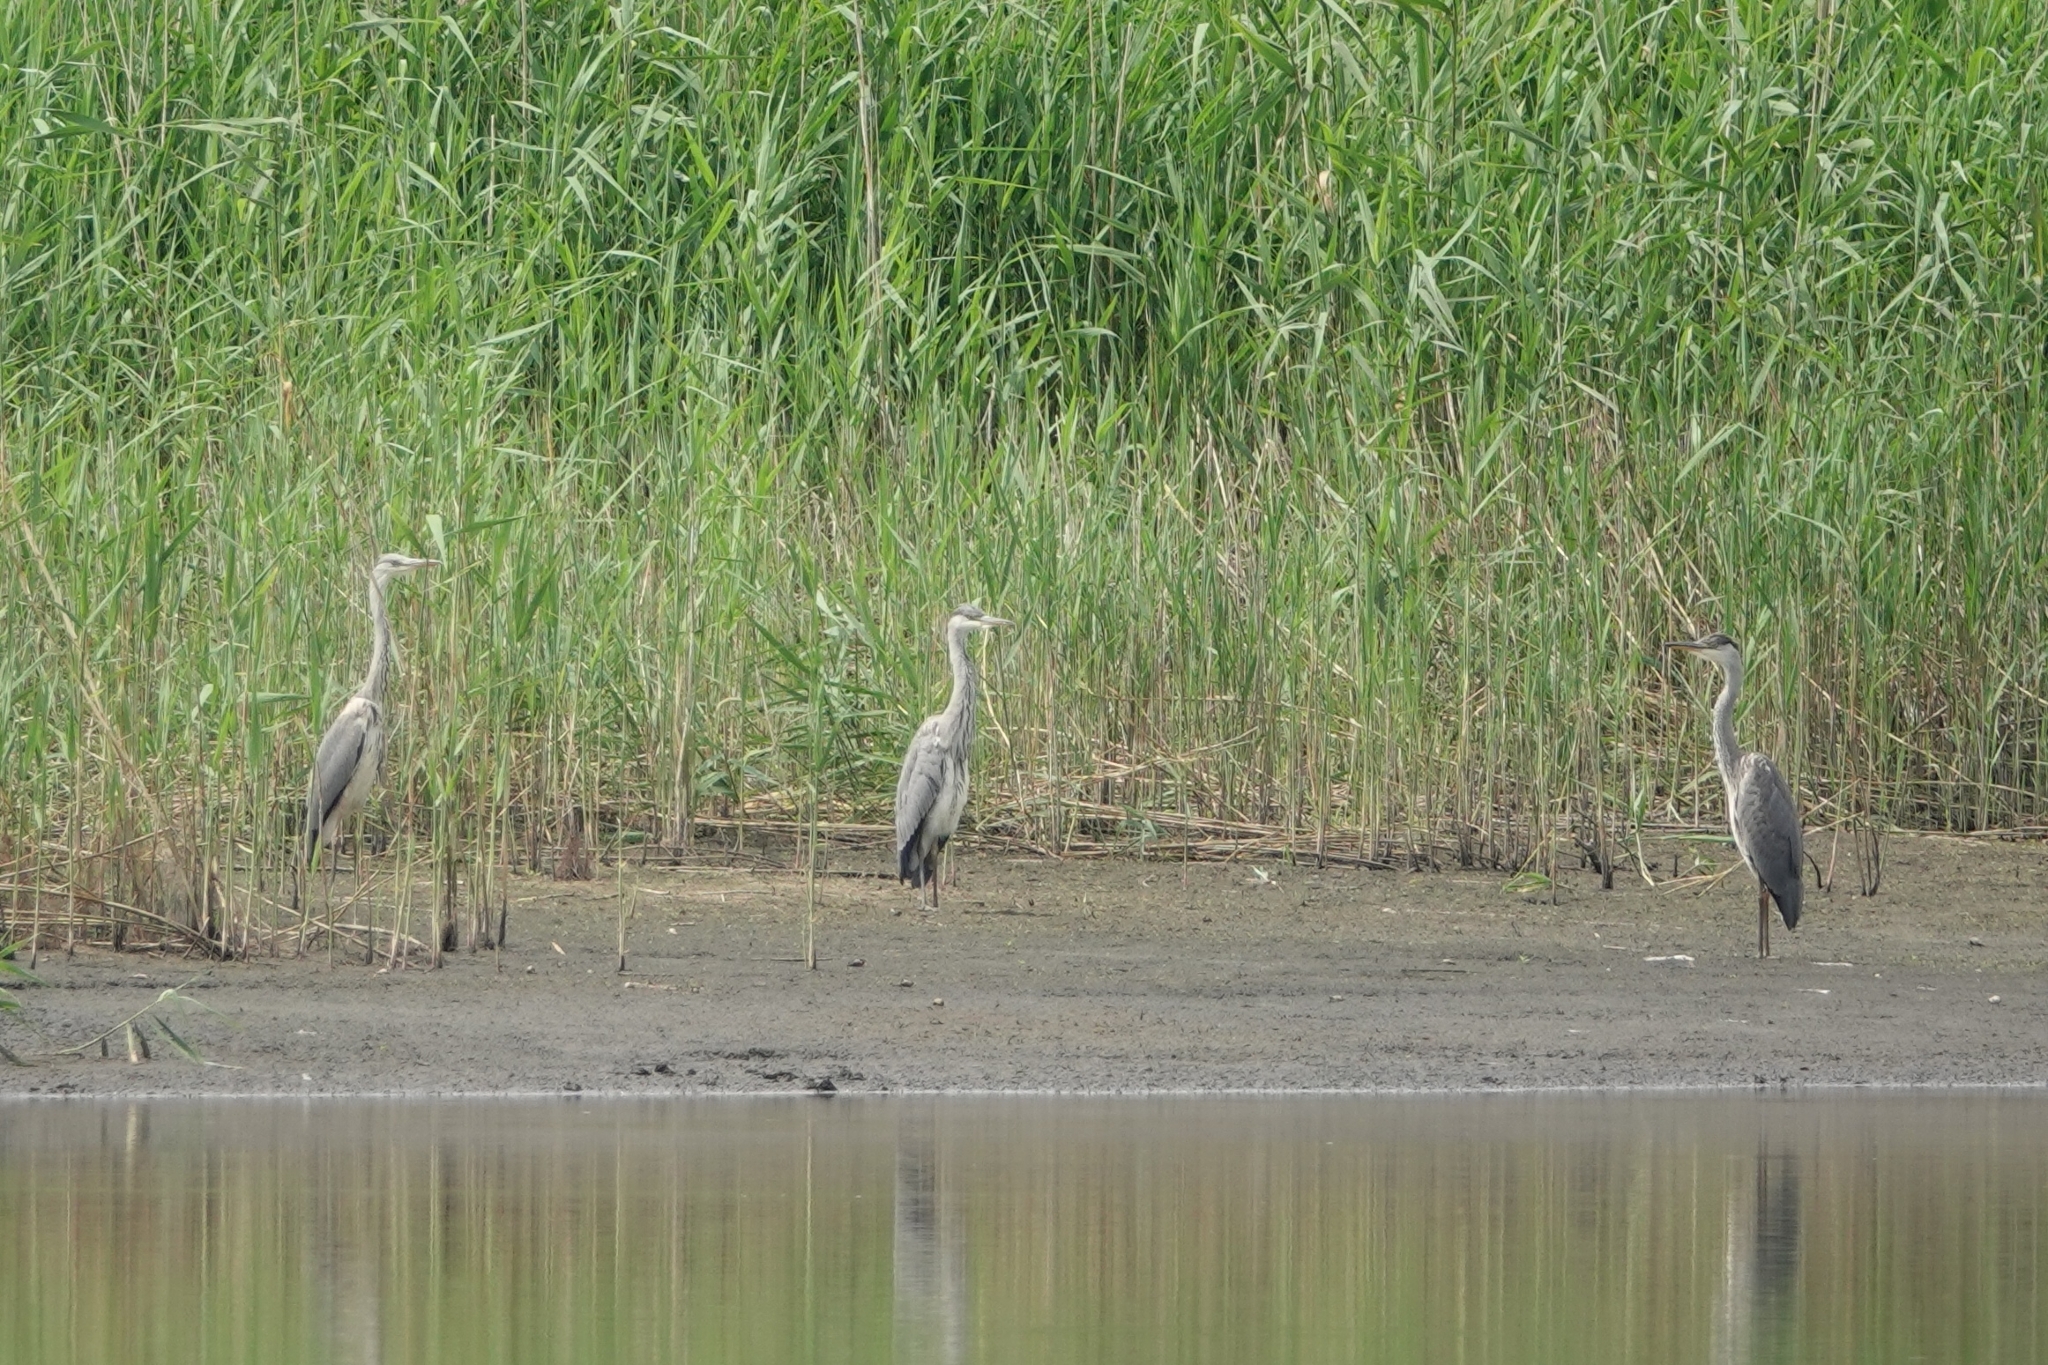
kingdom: Animalia
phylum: Chordata
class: Aves
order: Pelecaniformes
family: Ardeidae
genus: Ardea
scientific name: Ardea cinerea
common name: Grey heron
